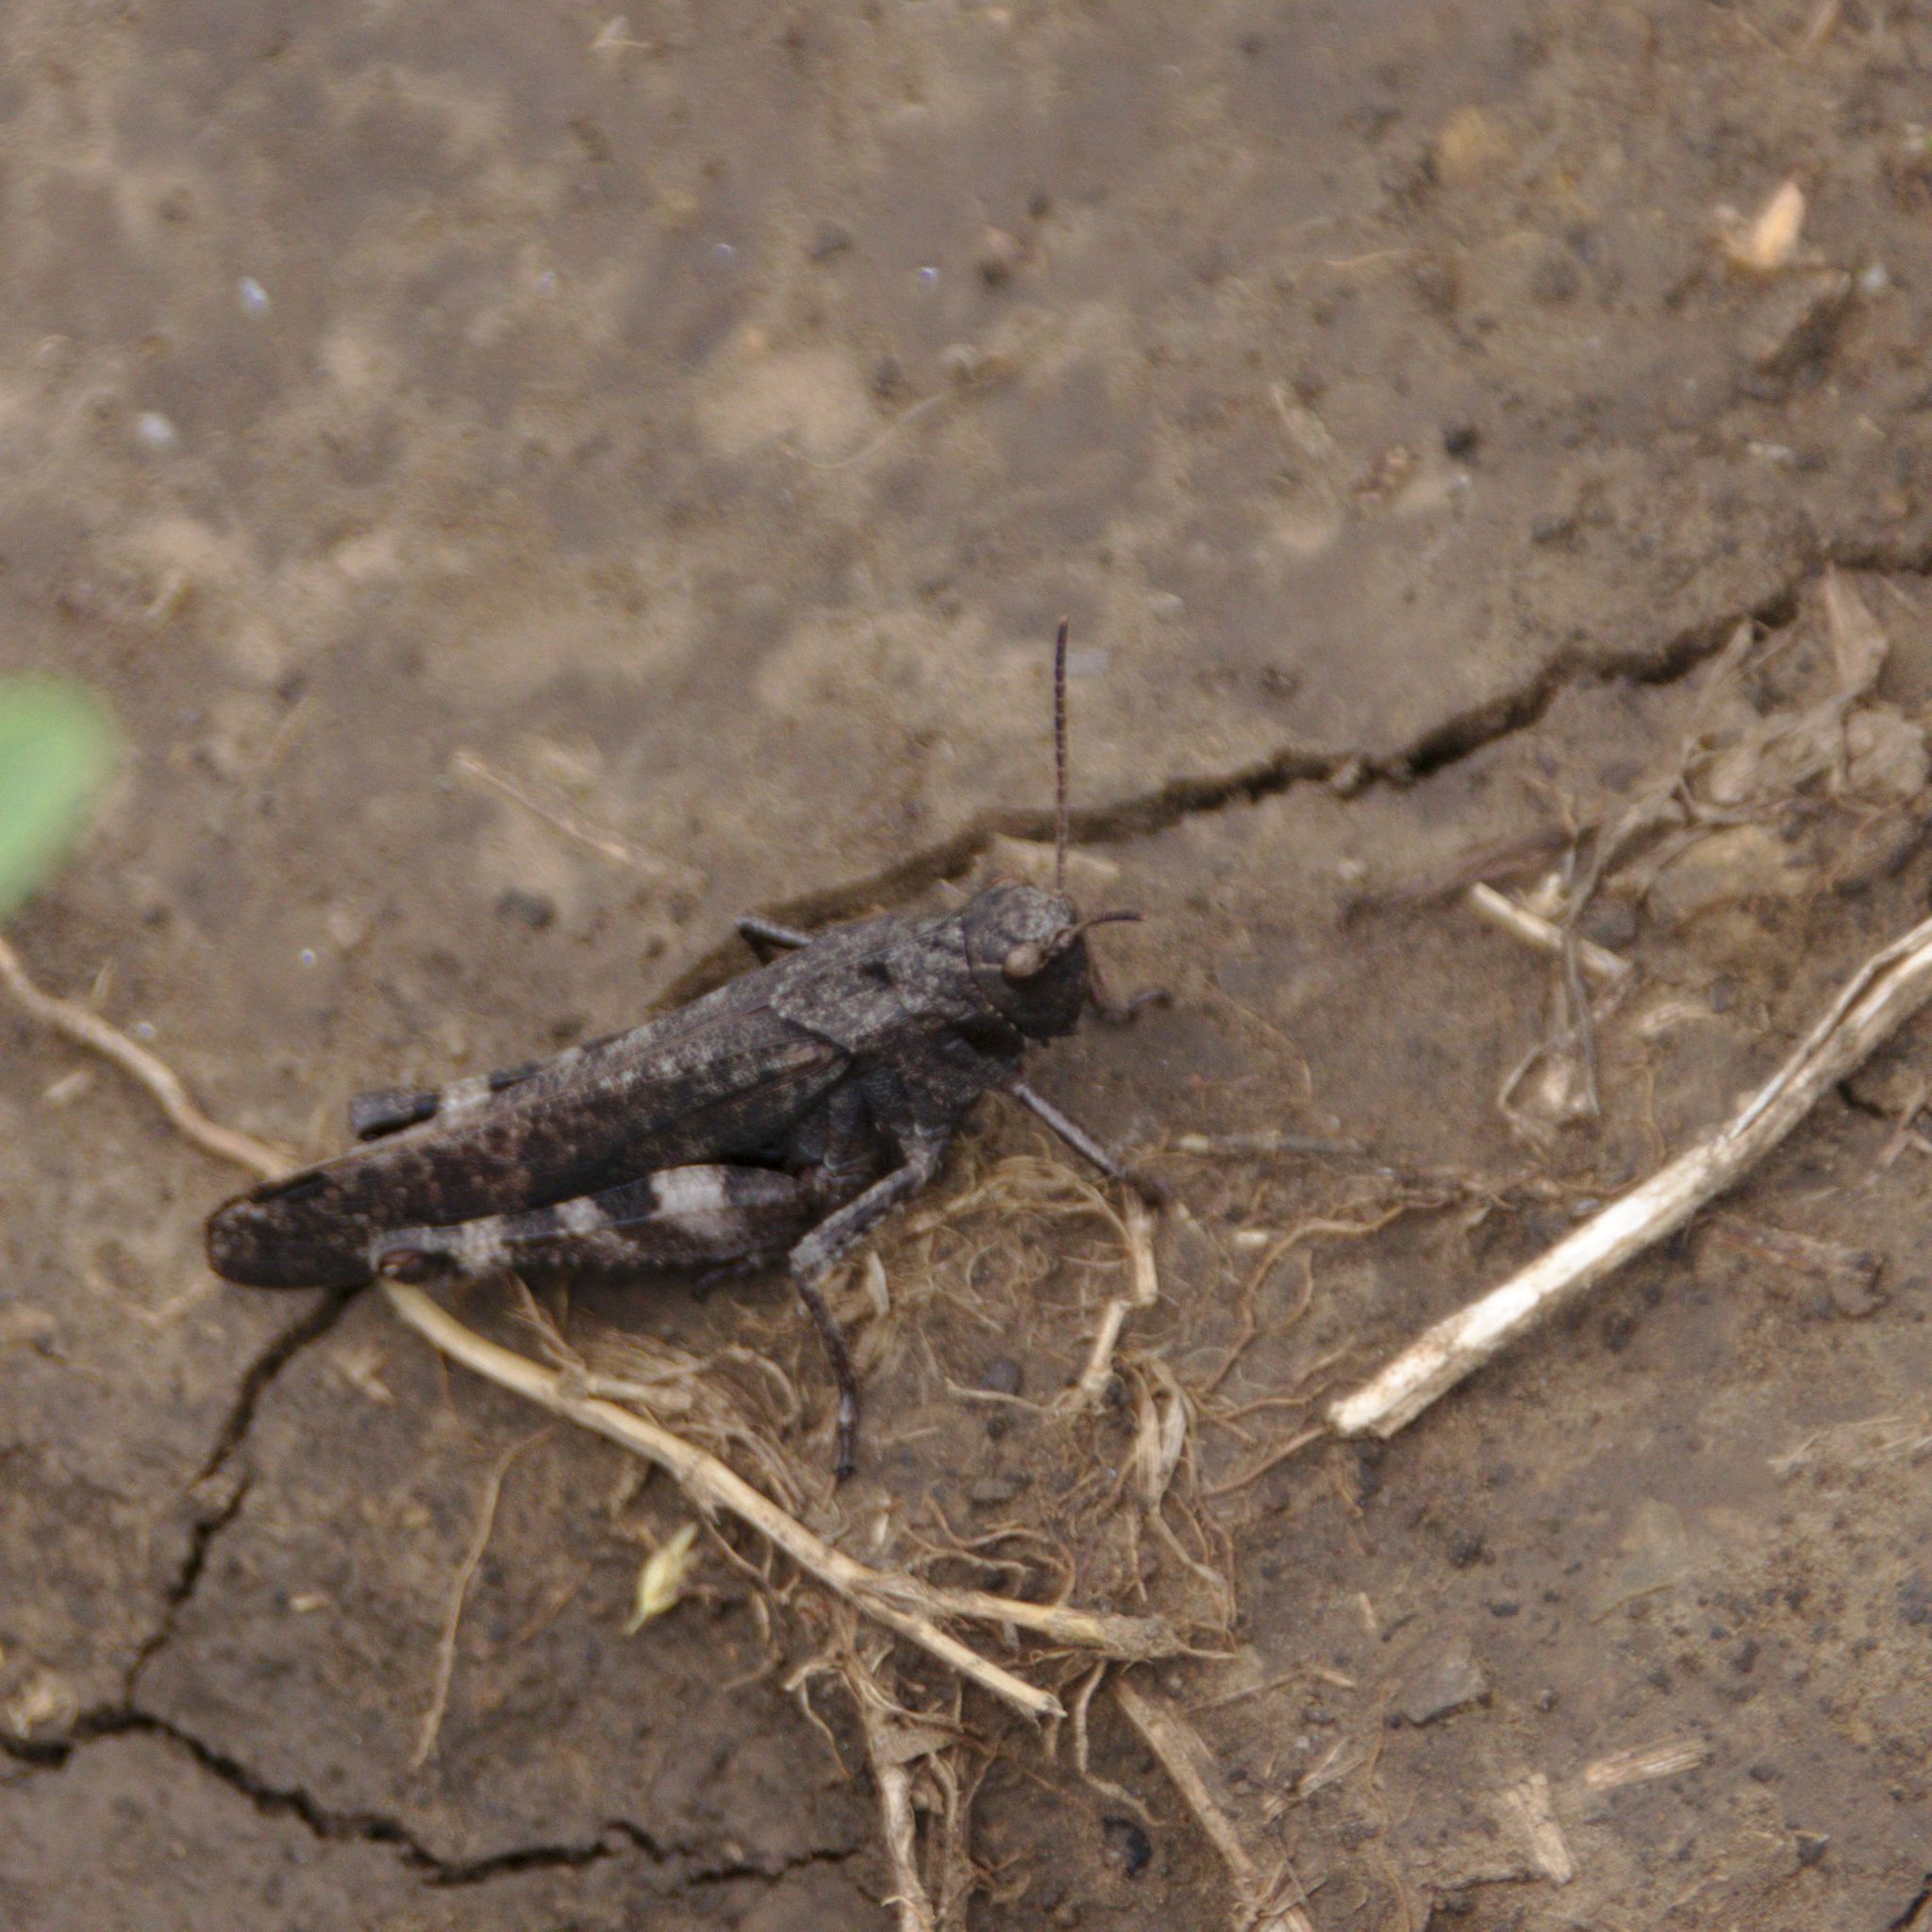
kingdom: Animalia
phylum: Arthropoda
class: Insecta
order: Orthoptera
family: Acrididae
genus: Psophus
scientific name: Psophus stridulus
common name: Rattle grasshopper
